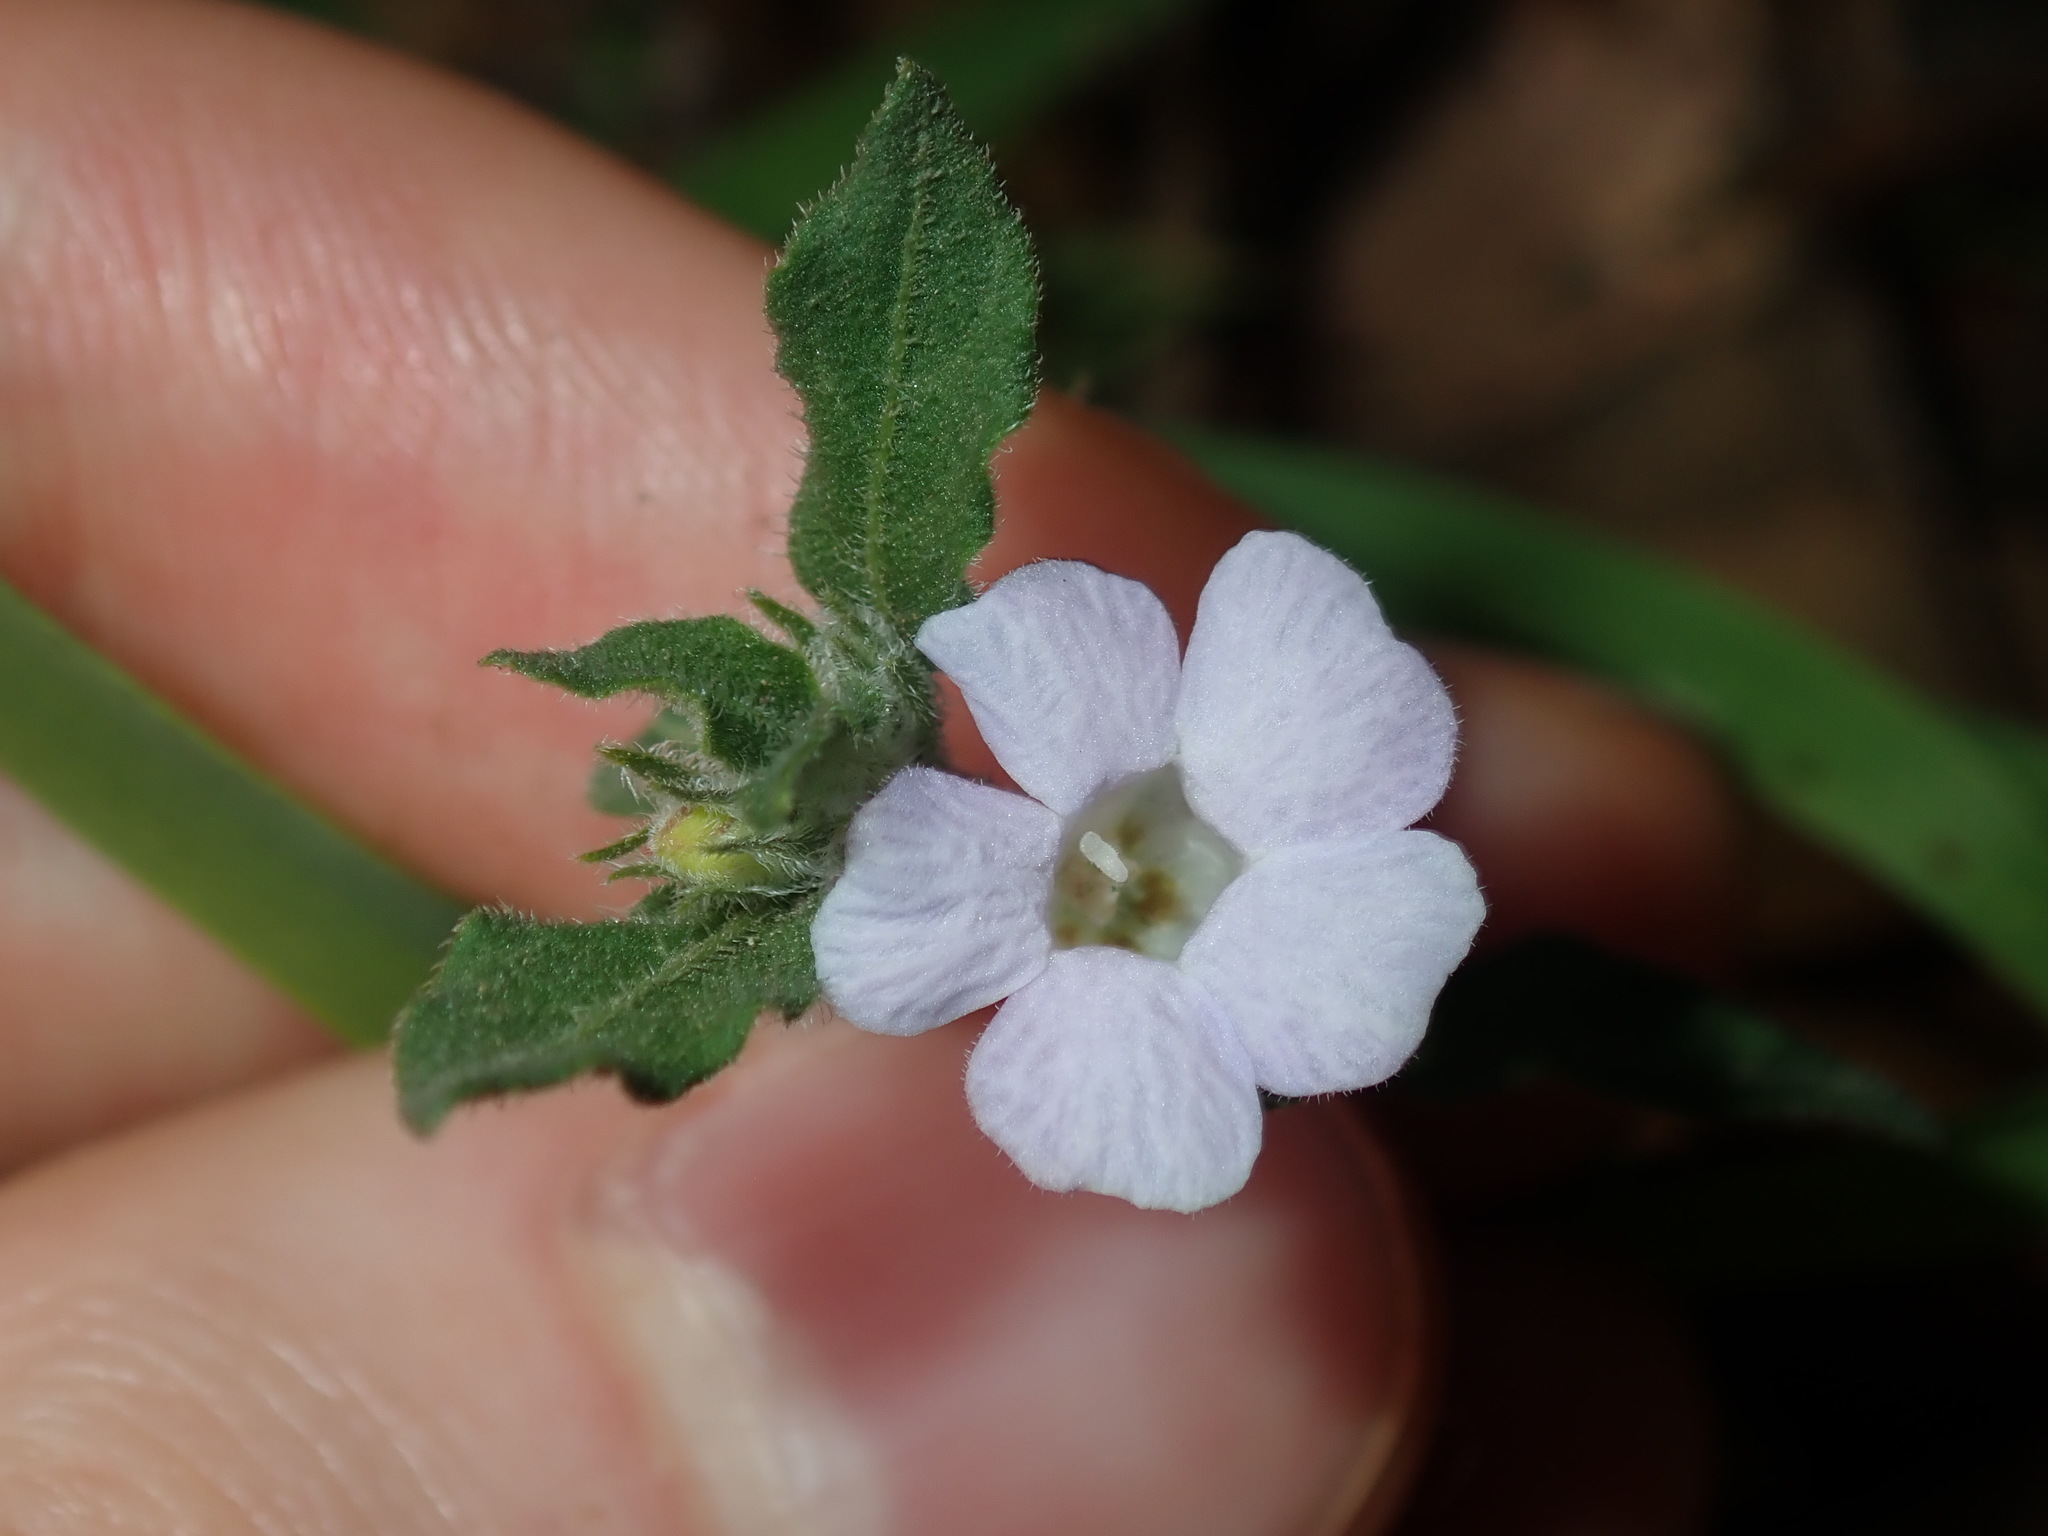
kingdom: Plantae
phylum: Tracheophyta
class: Magnoliopsida
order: Lamiales
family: Acanthaceae
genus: Brunoniella
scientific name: Brunoniella australis
